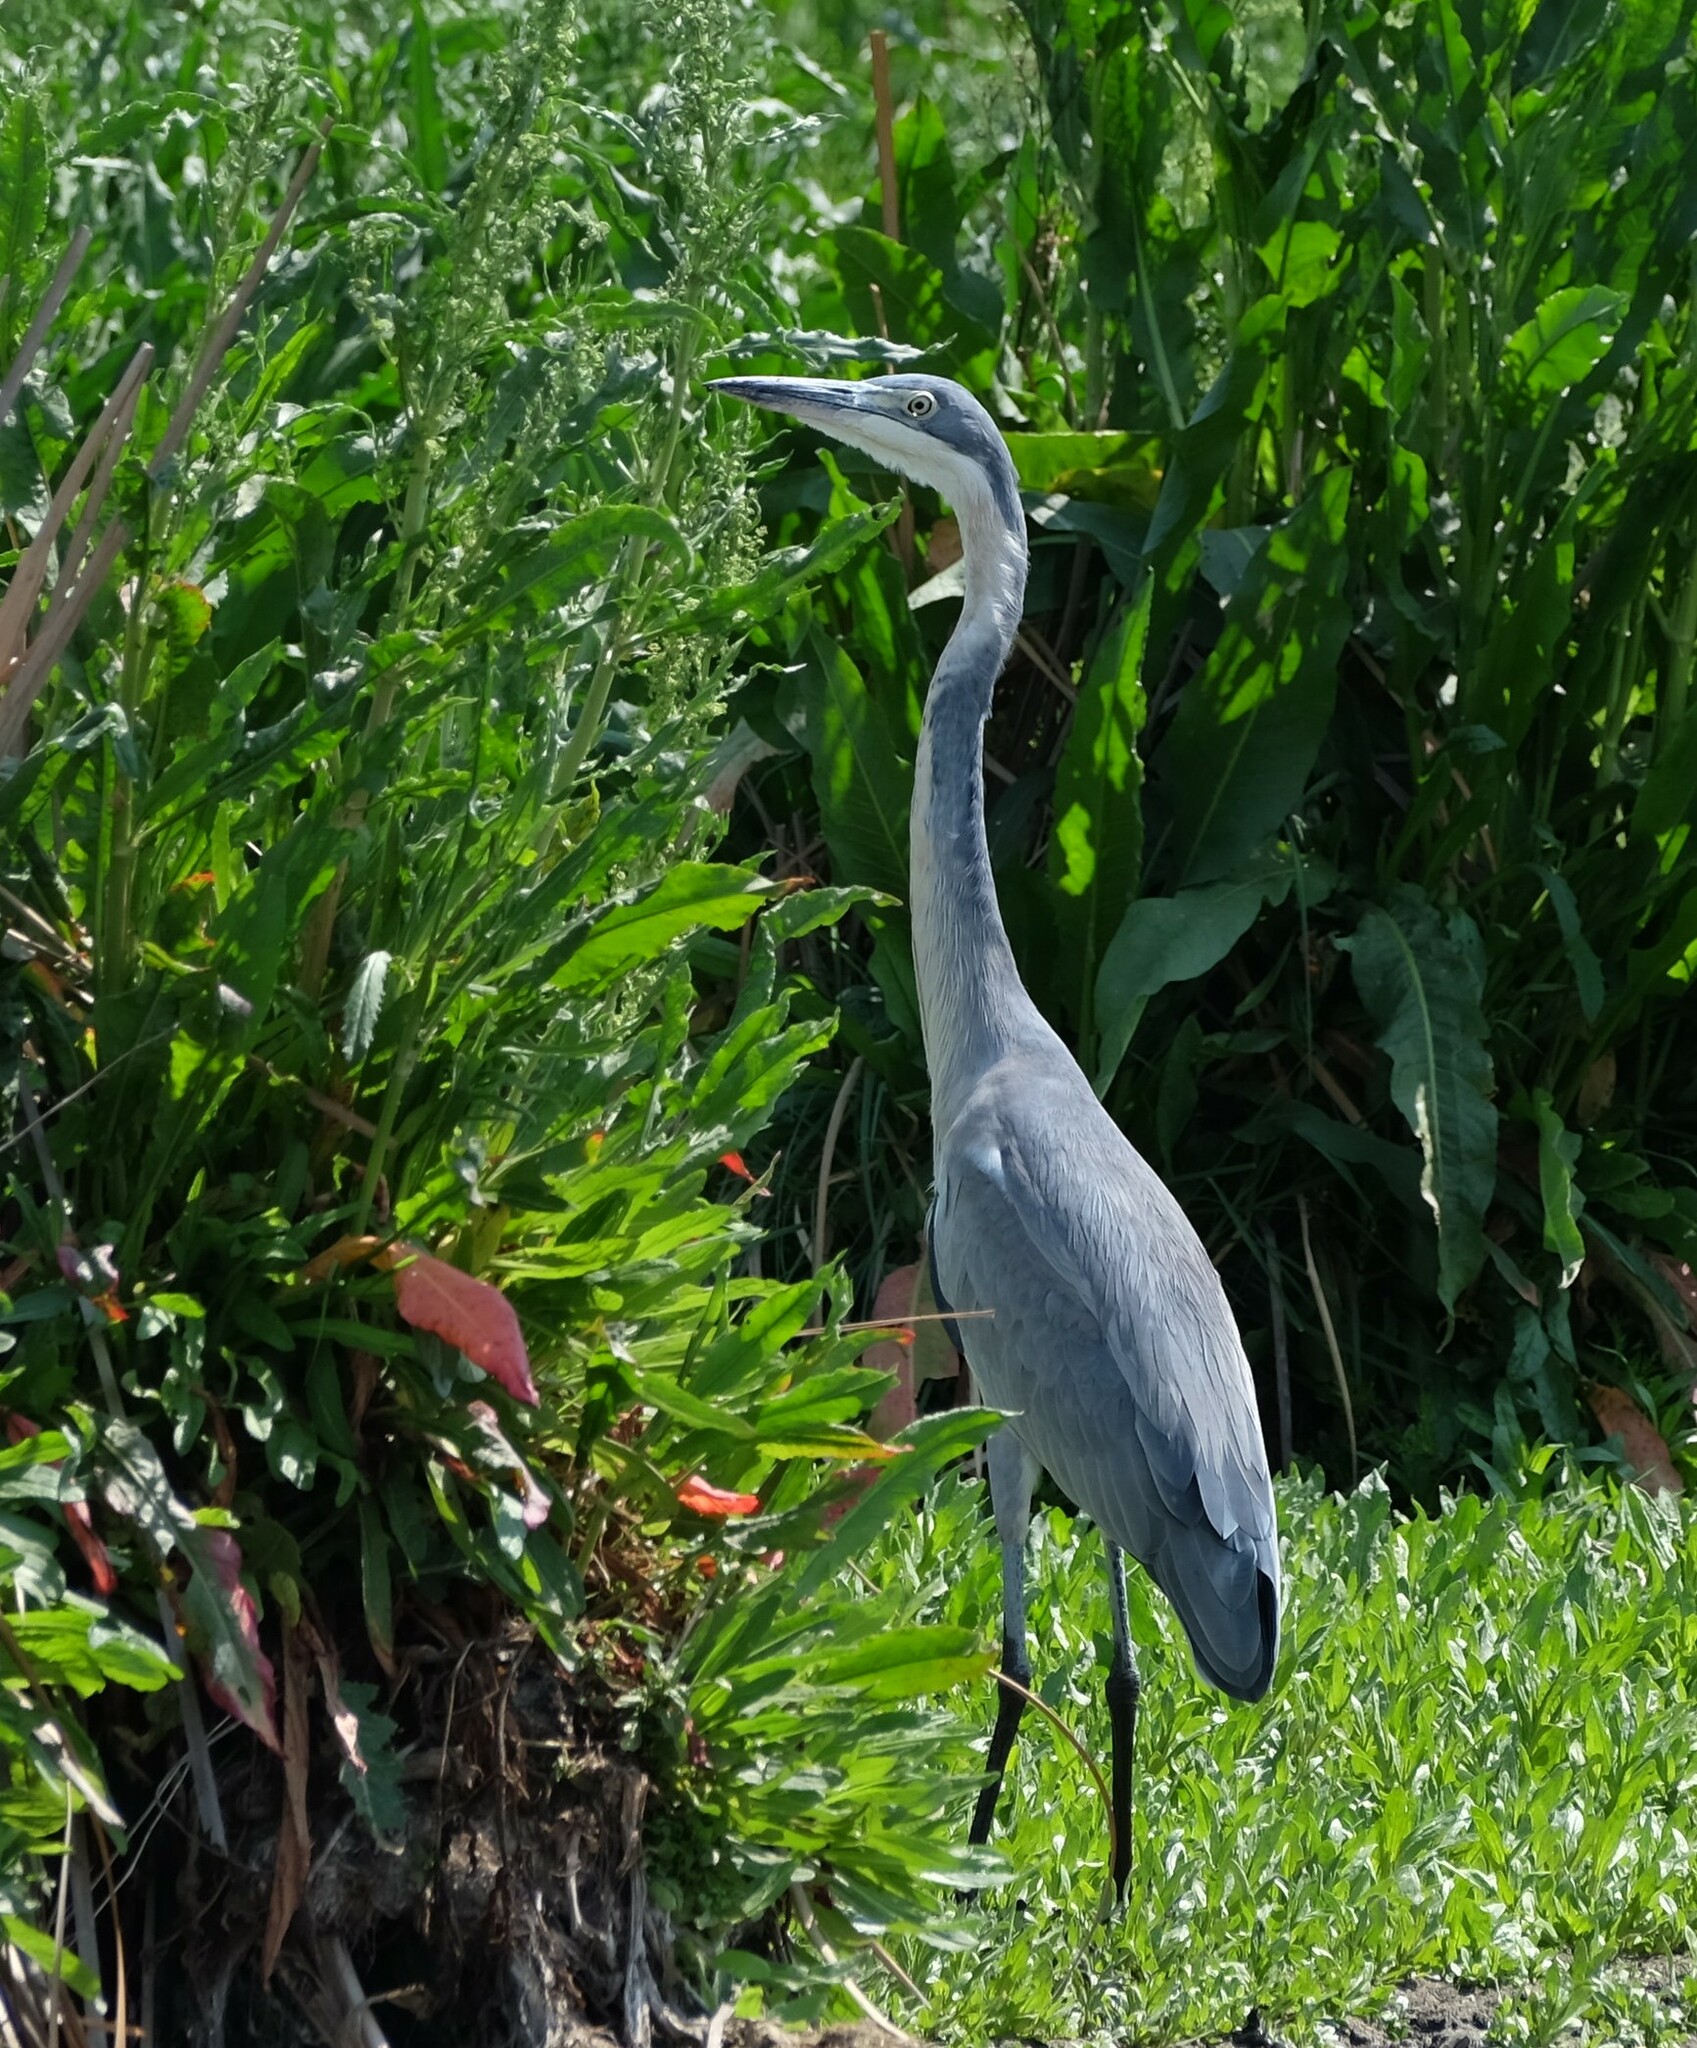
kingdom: Animalia
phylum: Chordata
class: Aves
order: Pelecaniformes
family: Ardeidae
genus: Ardea
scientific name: Ardea melanocephala
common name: Black-headed heron
